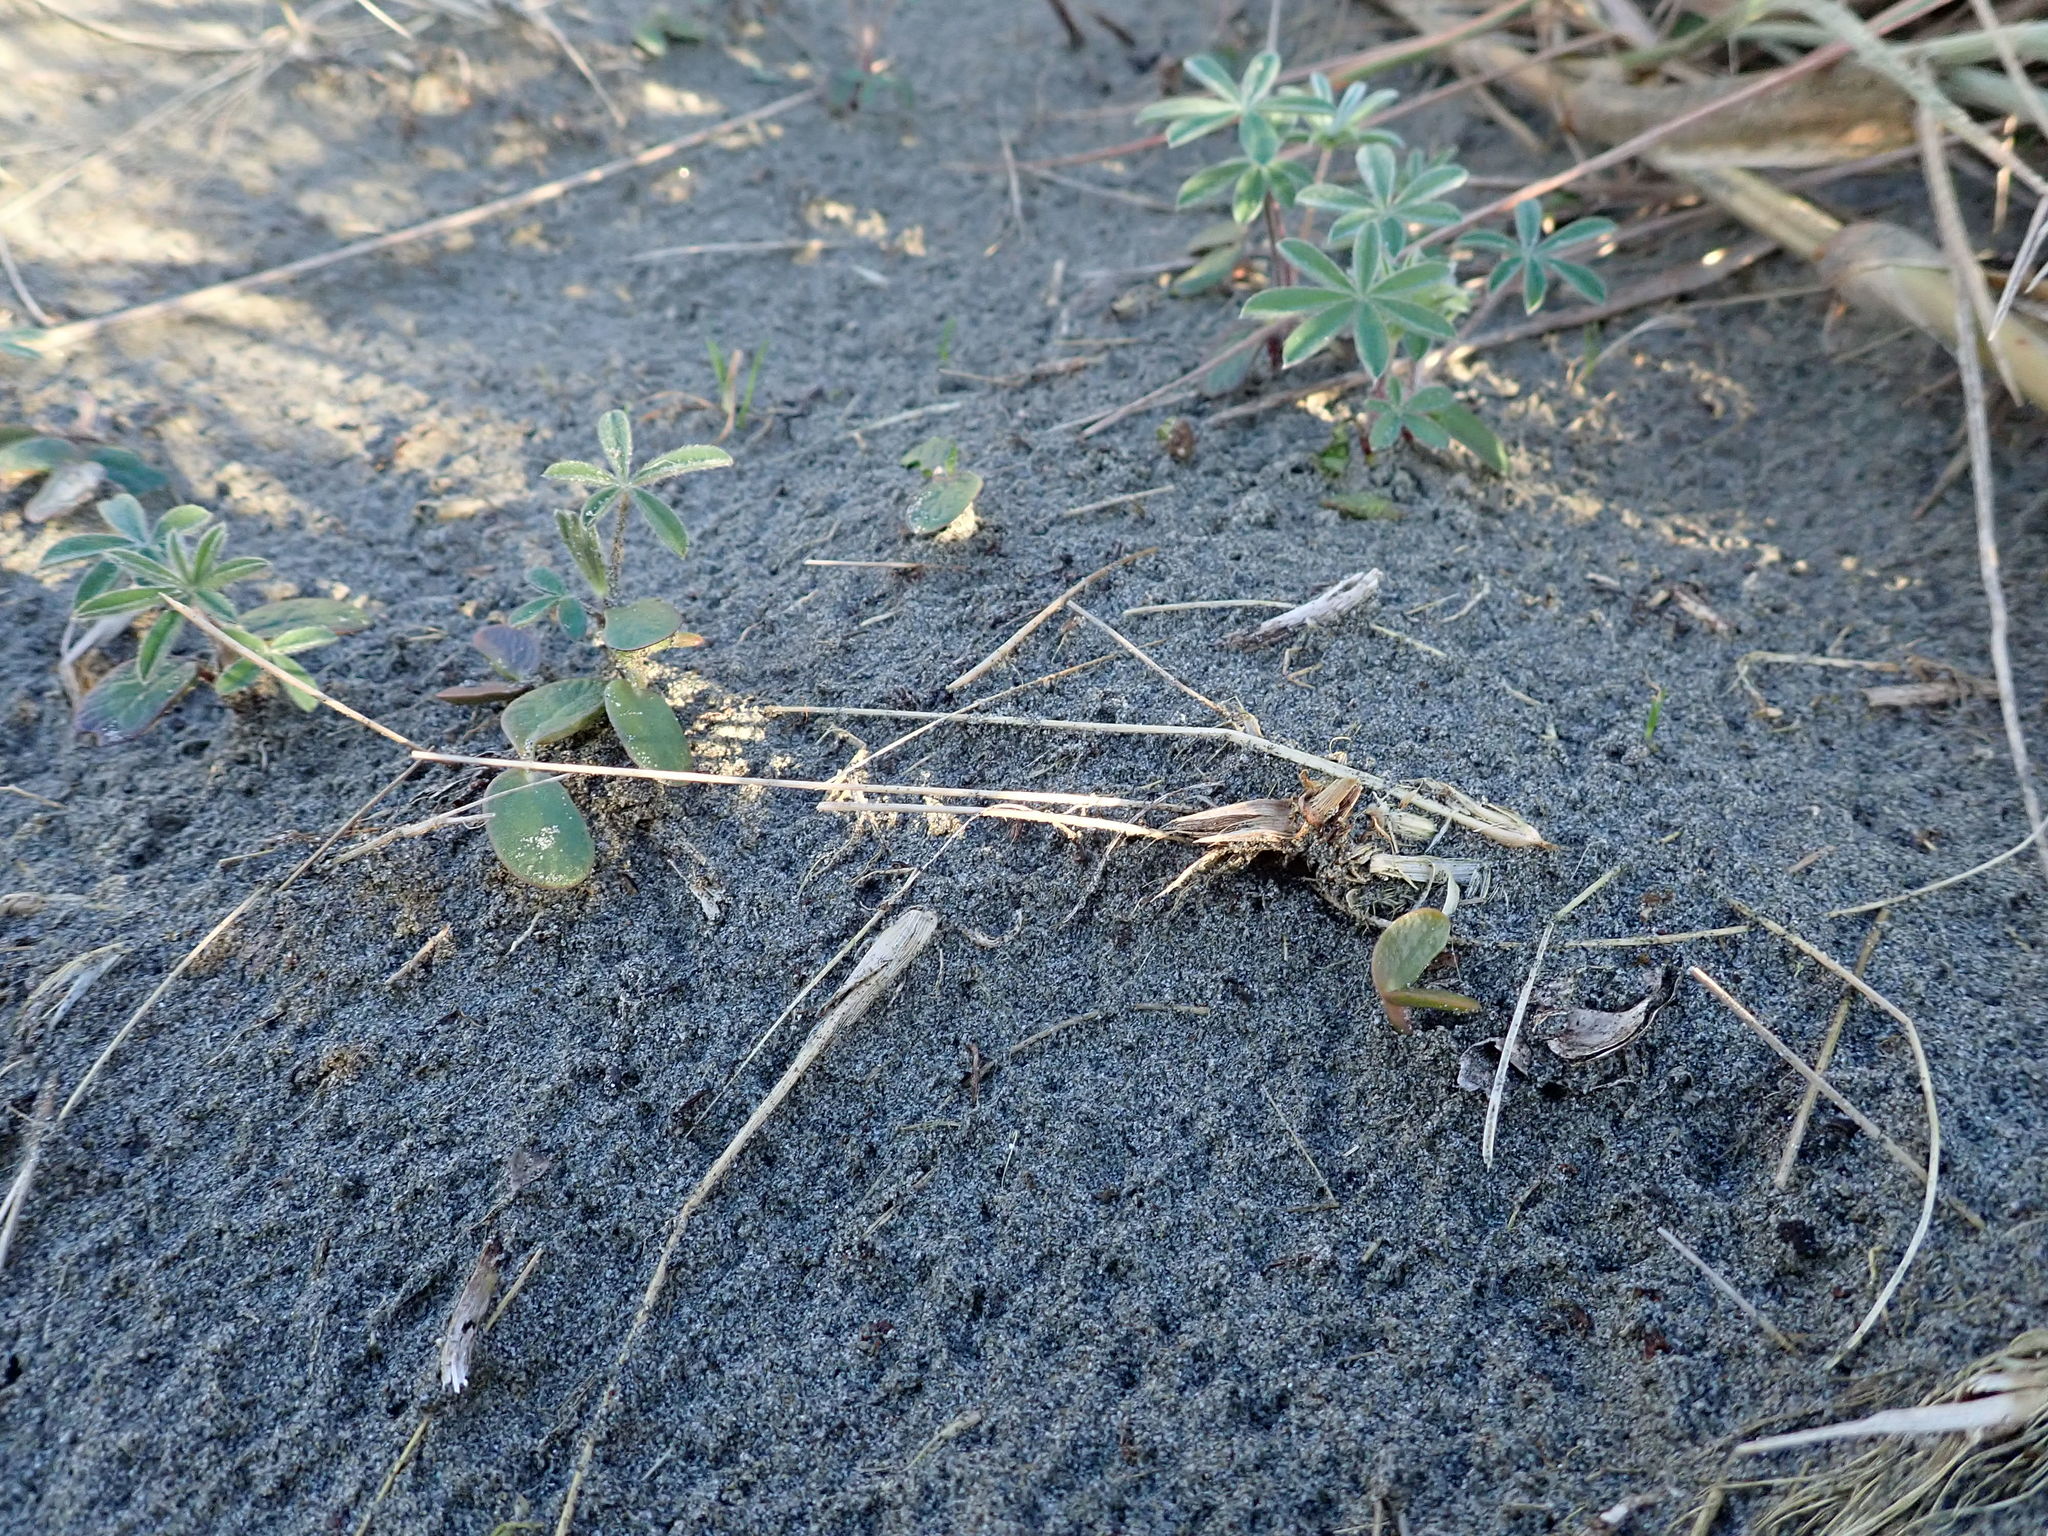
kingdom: Plantae
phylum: Tracheophyta
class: Magnoliopsida
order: Fabales
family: Fabaceae
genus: Lupinus
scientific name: Lupinus arboreus
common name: Yellow bush lupine
